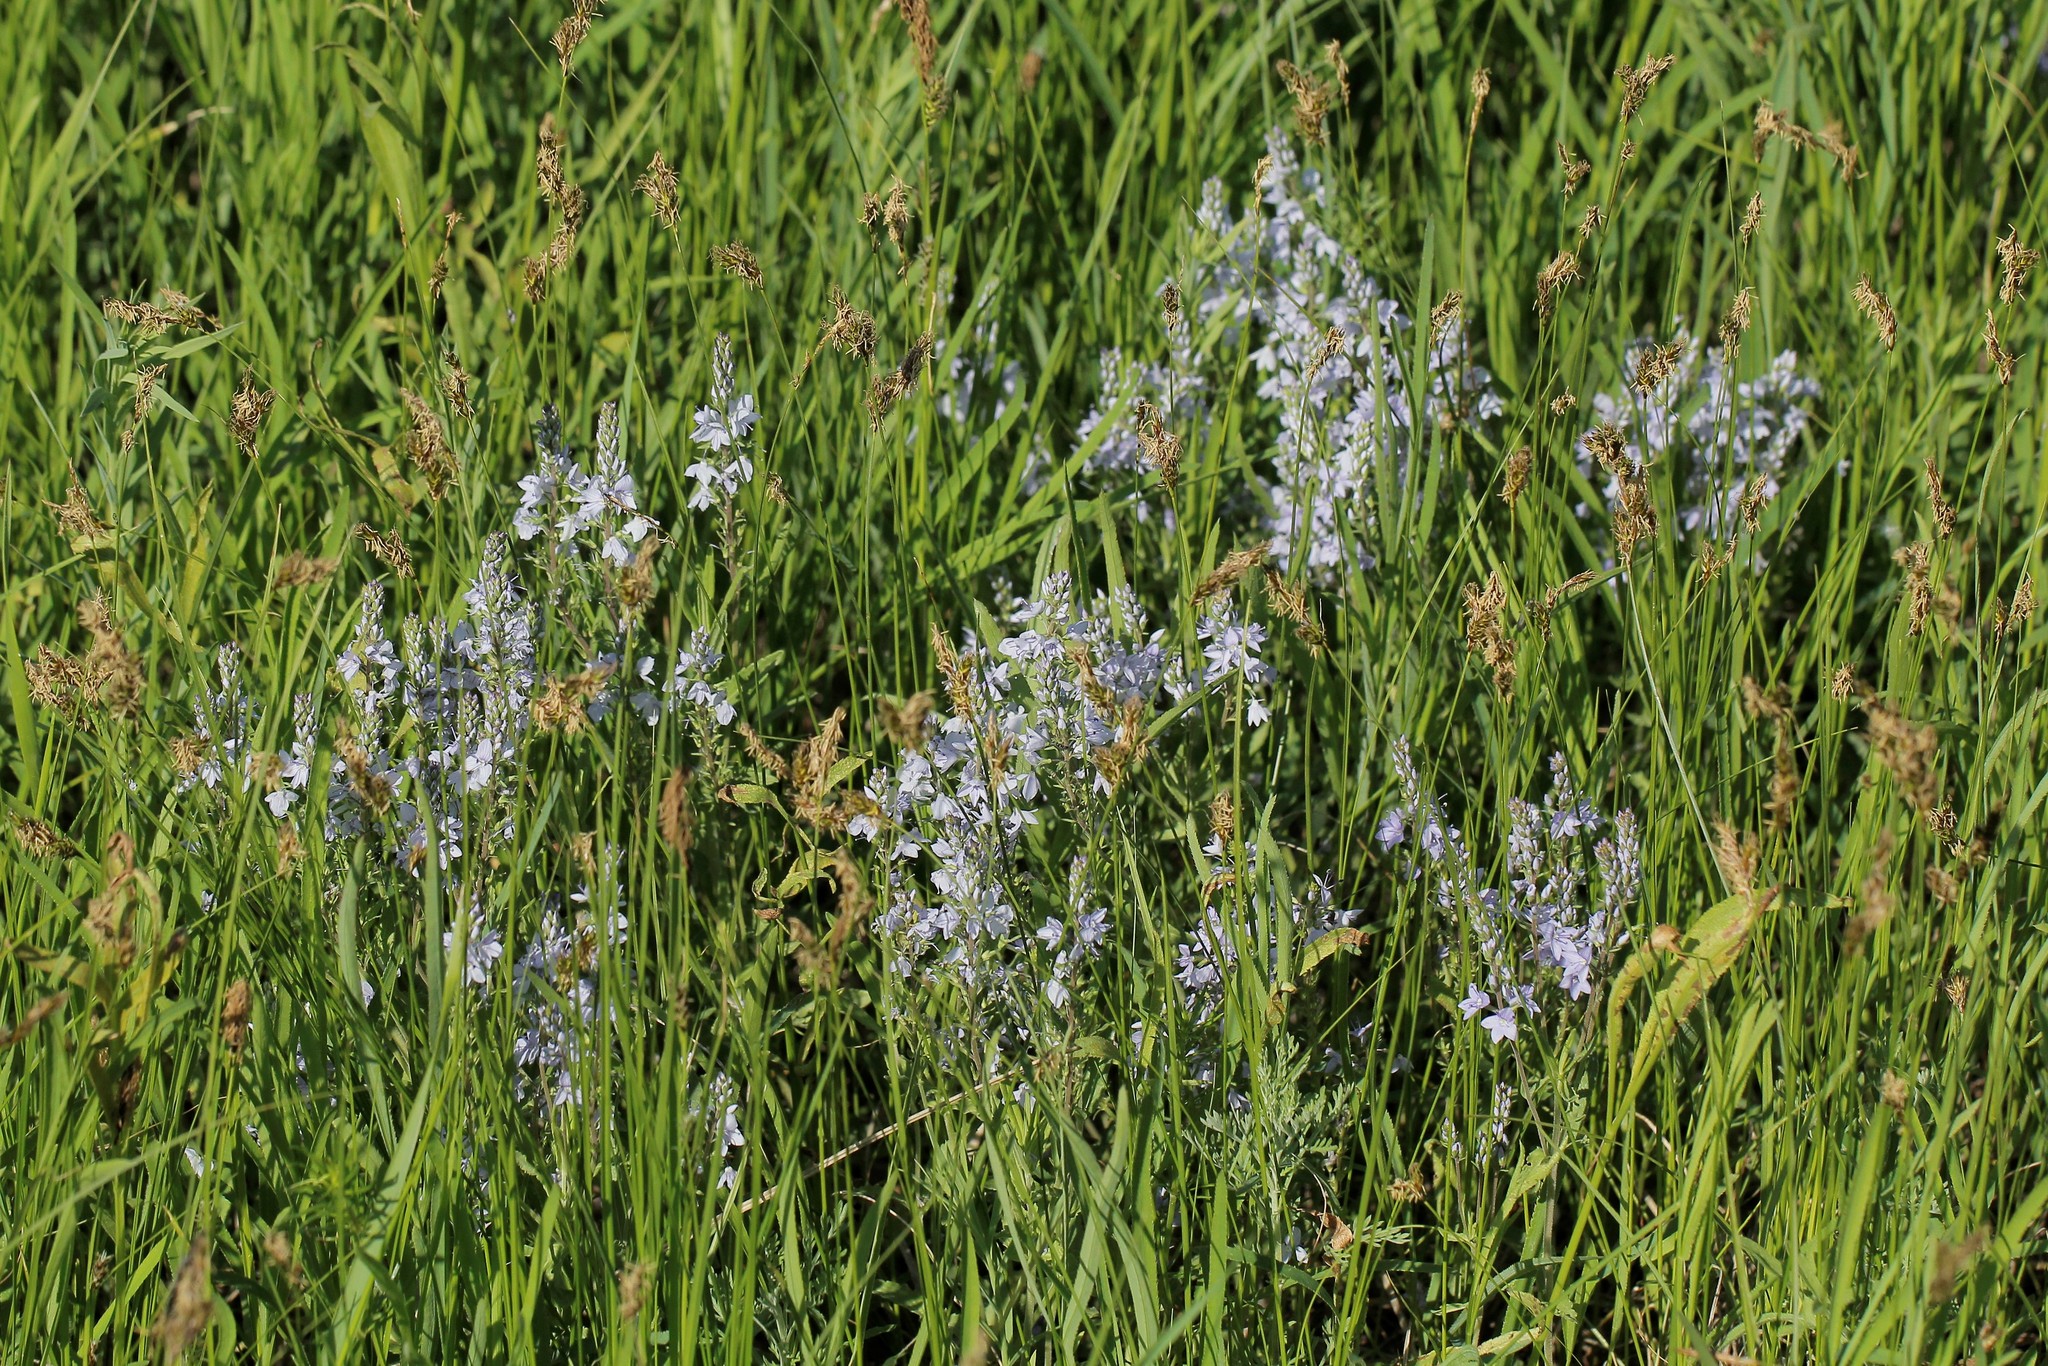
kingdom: Plantae
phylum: Tracheophyta
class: Magnoliopsida
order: Lamiales
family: Plantaginaceae
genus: Veronica
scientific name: Veronica austriaca
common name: Large speedwell
